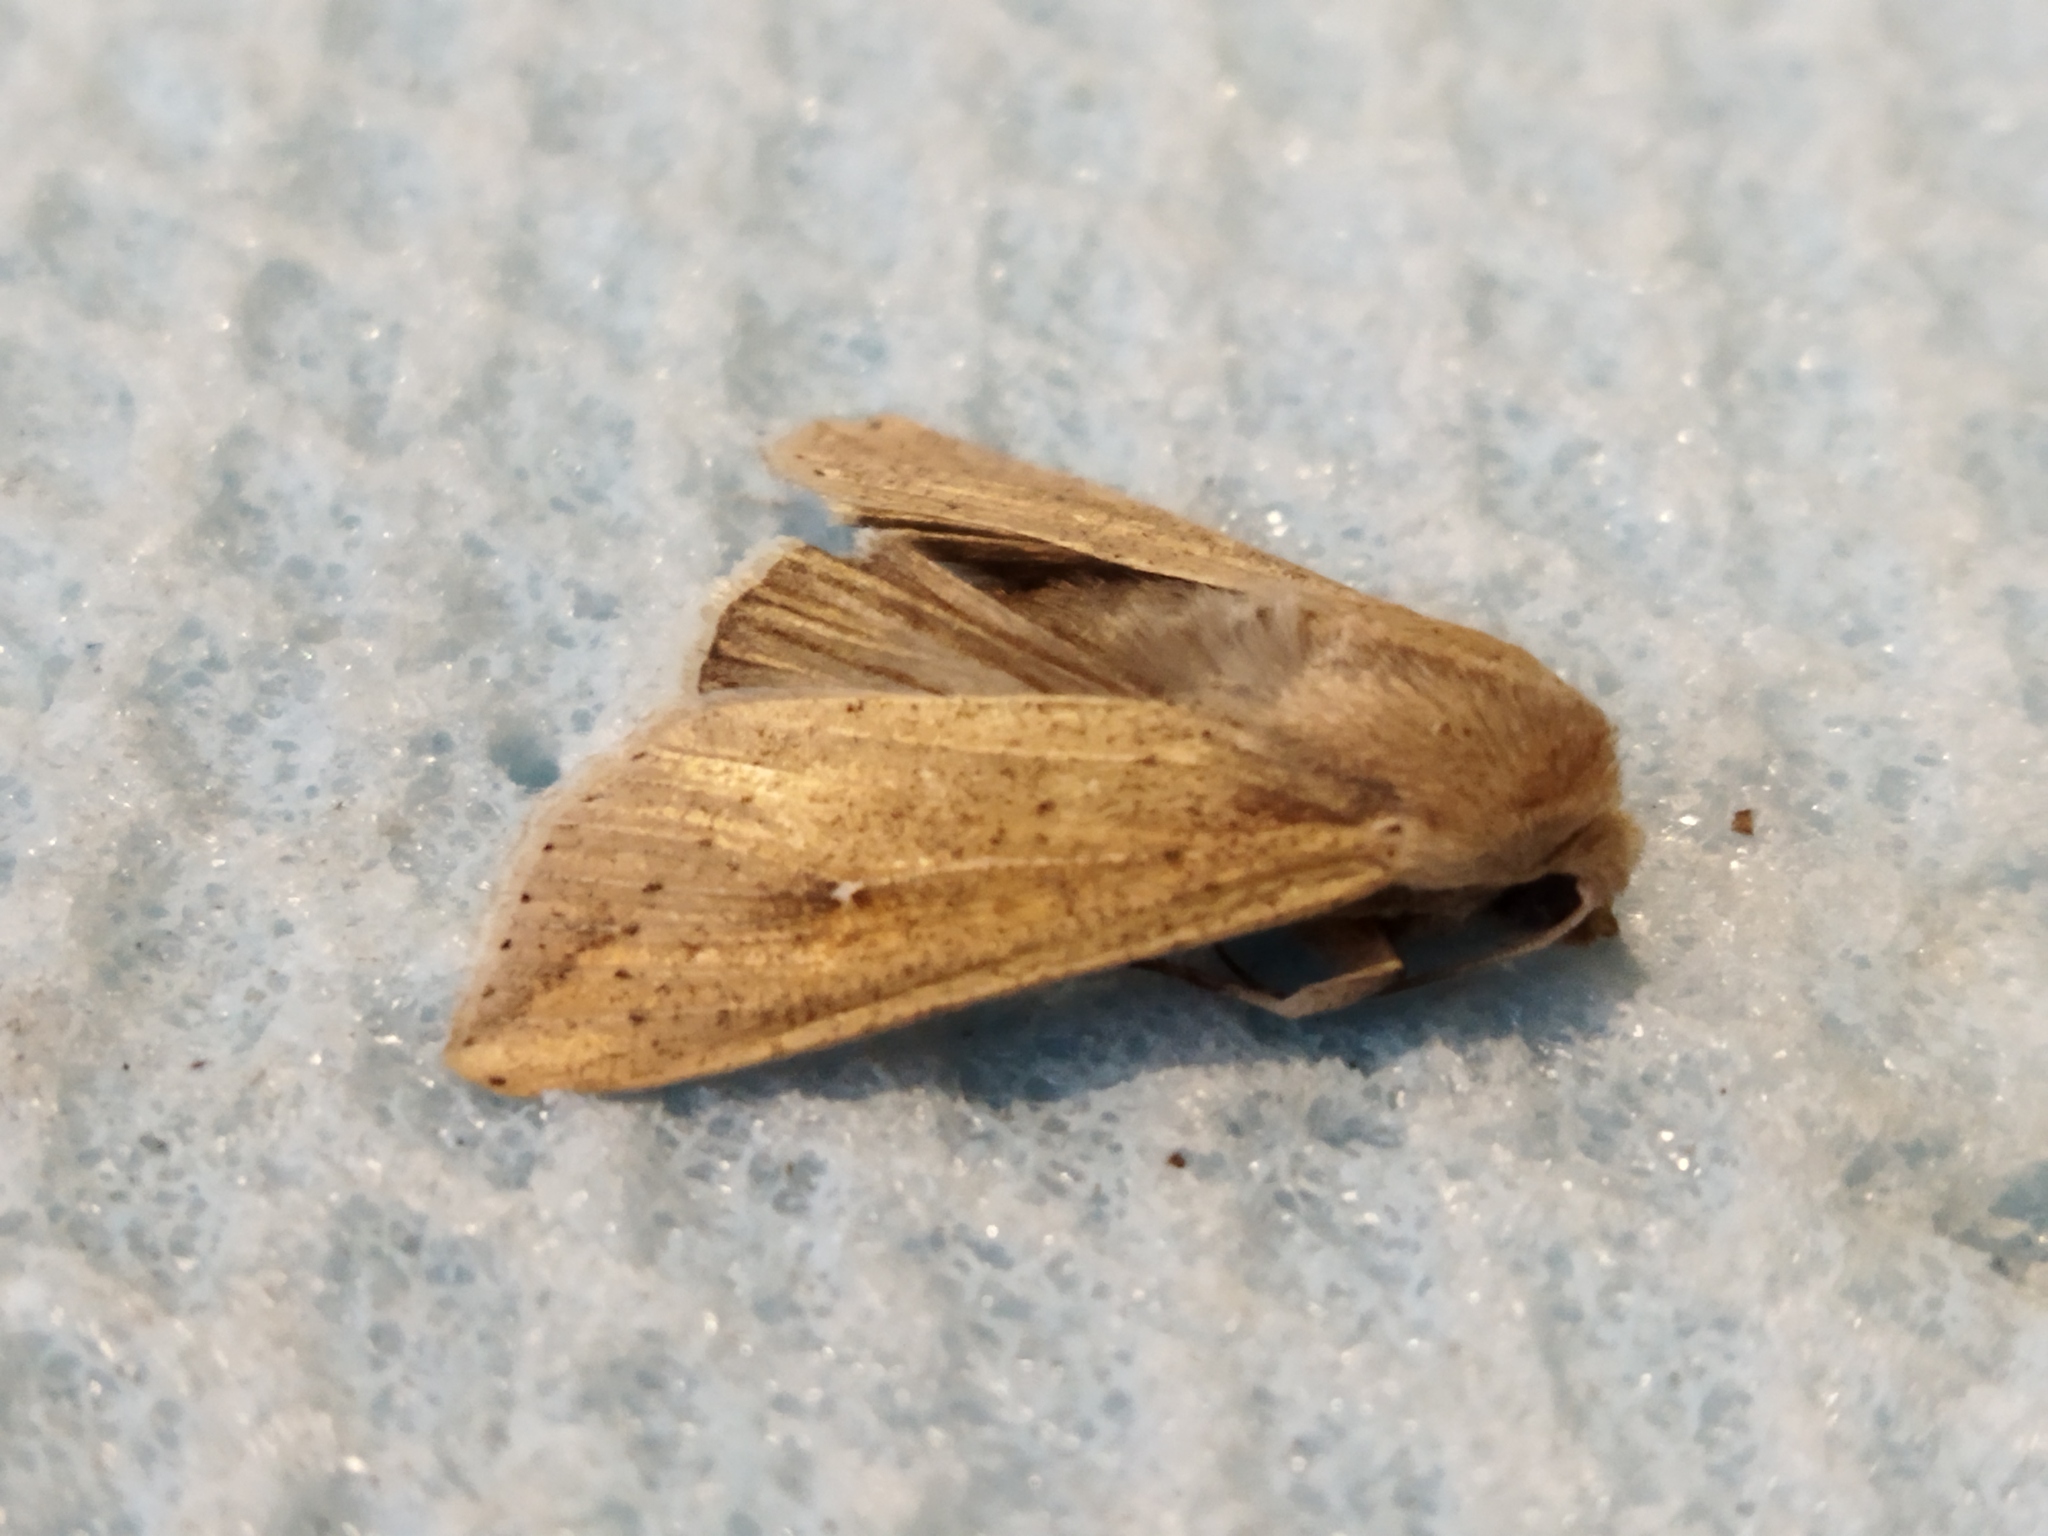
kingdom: Animalia
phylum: Arthropoda
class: Insecta
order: Lepidoptera
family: Noctuidae
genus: Mythimna
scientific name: Mythimna unipuncta
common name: White-speck
